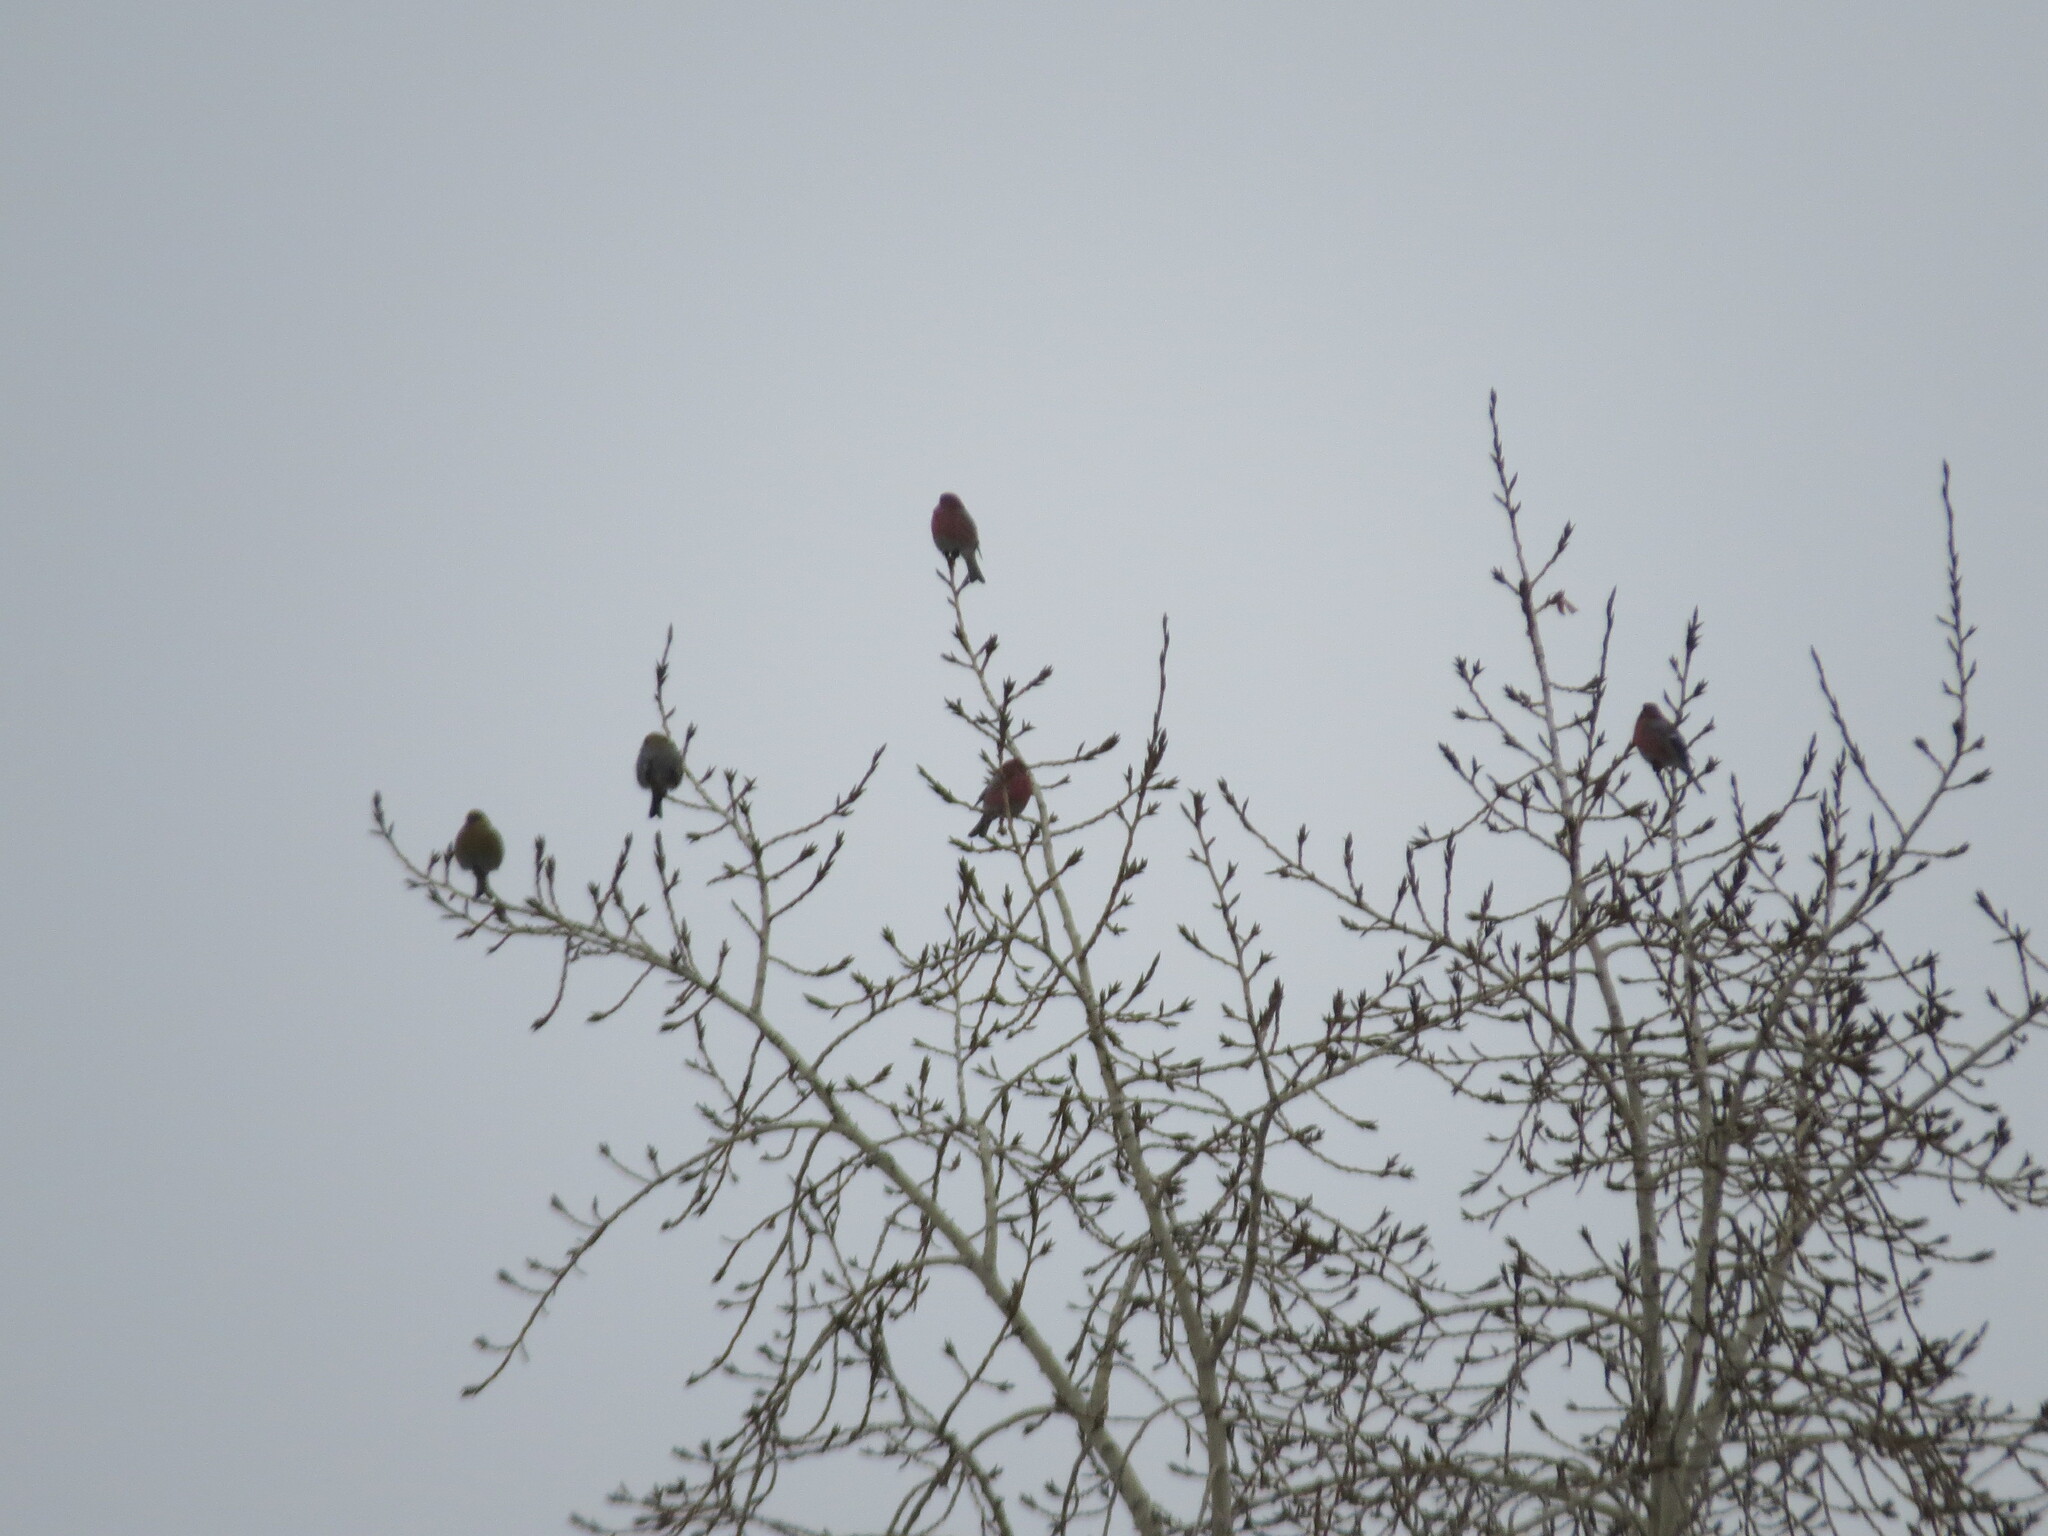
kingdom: Animalia
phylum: Chordata
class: Aves
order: Passeriformes
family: Fringillidae
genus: Pyrrhula
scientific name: Pyrrhula pyrrhula
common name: Eurasian bullfinch
